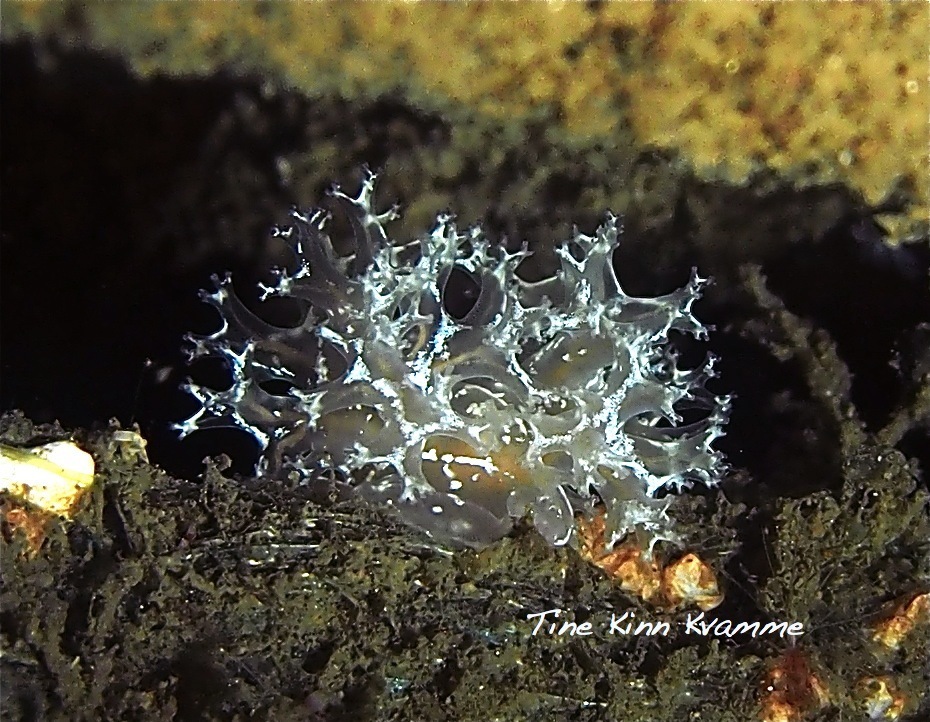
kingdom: Animalia
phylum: Mollusca
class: Gastropoda
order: Nudibranchia
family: Heroidae
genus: Hero
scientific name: Hero formosa
